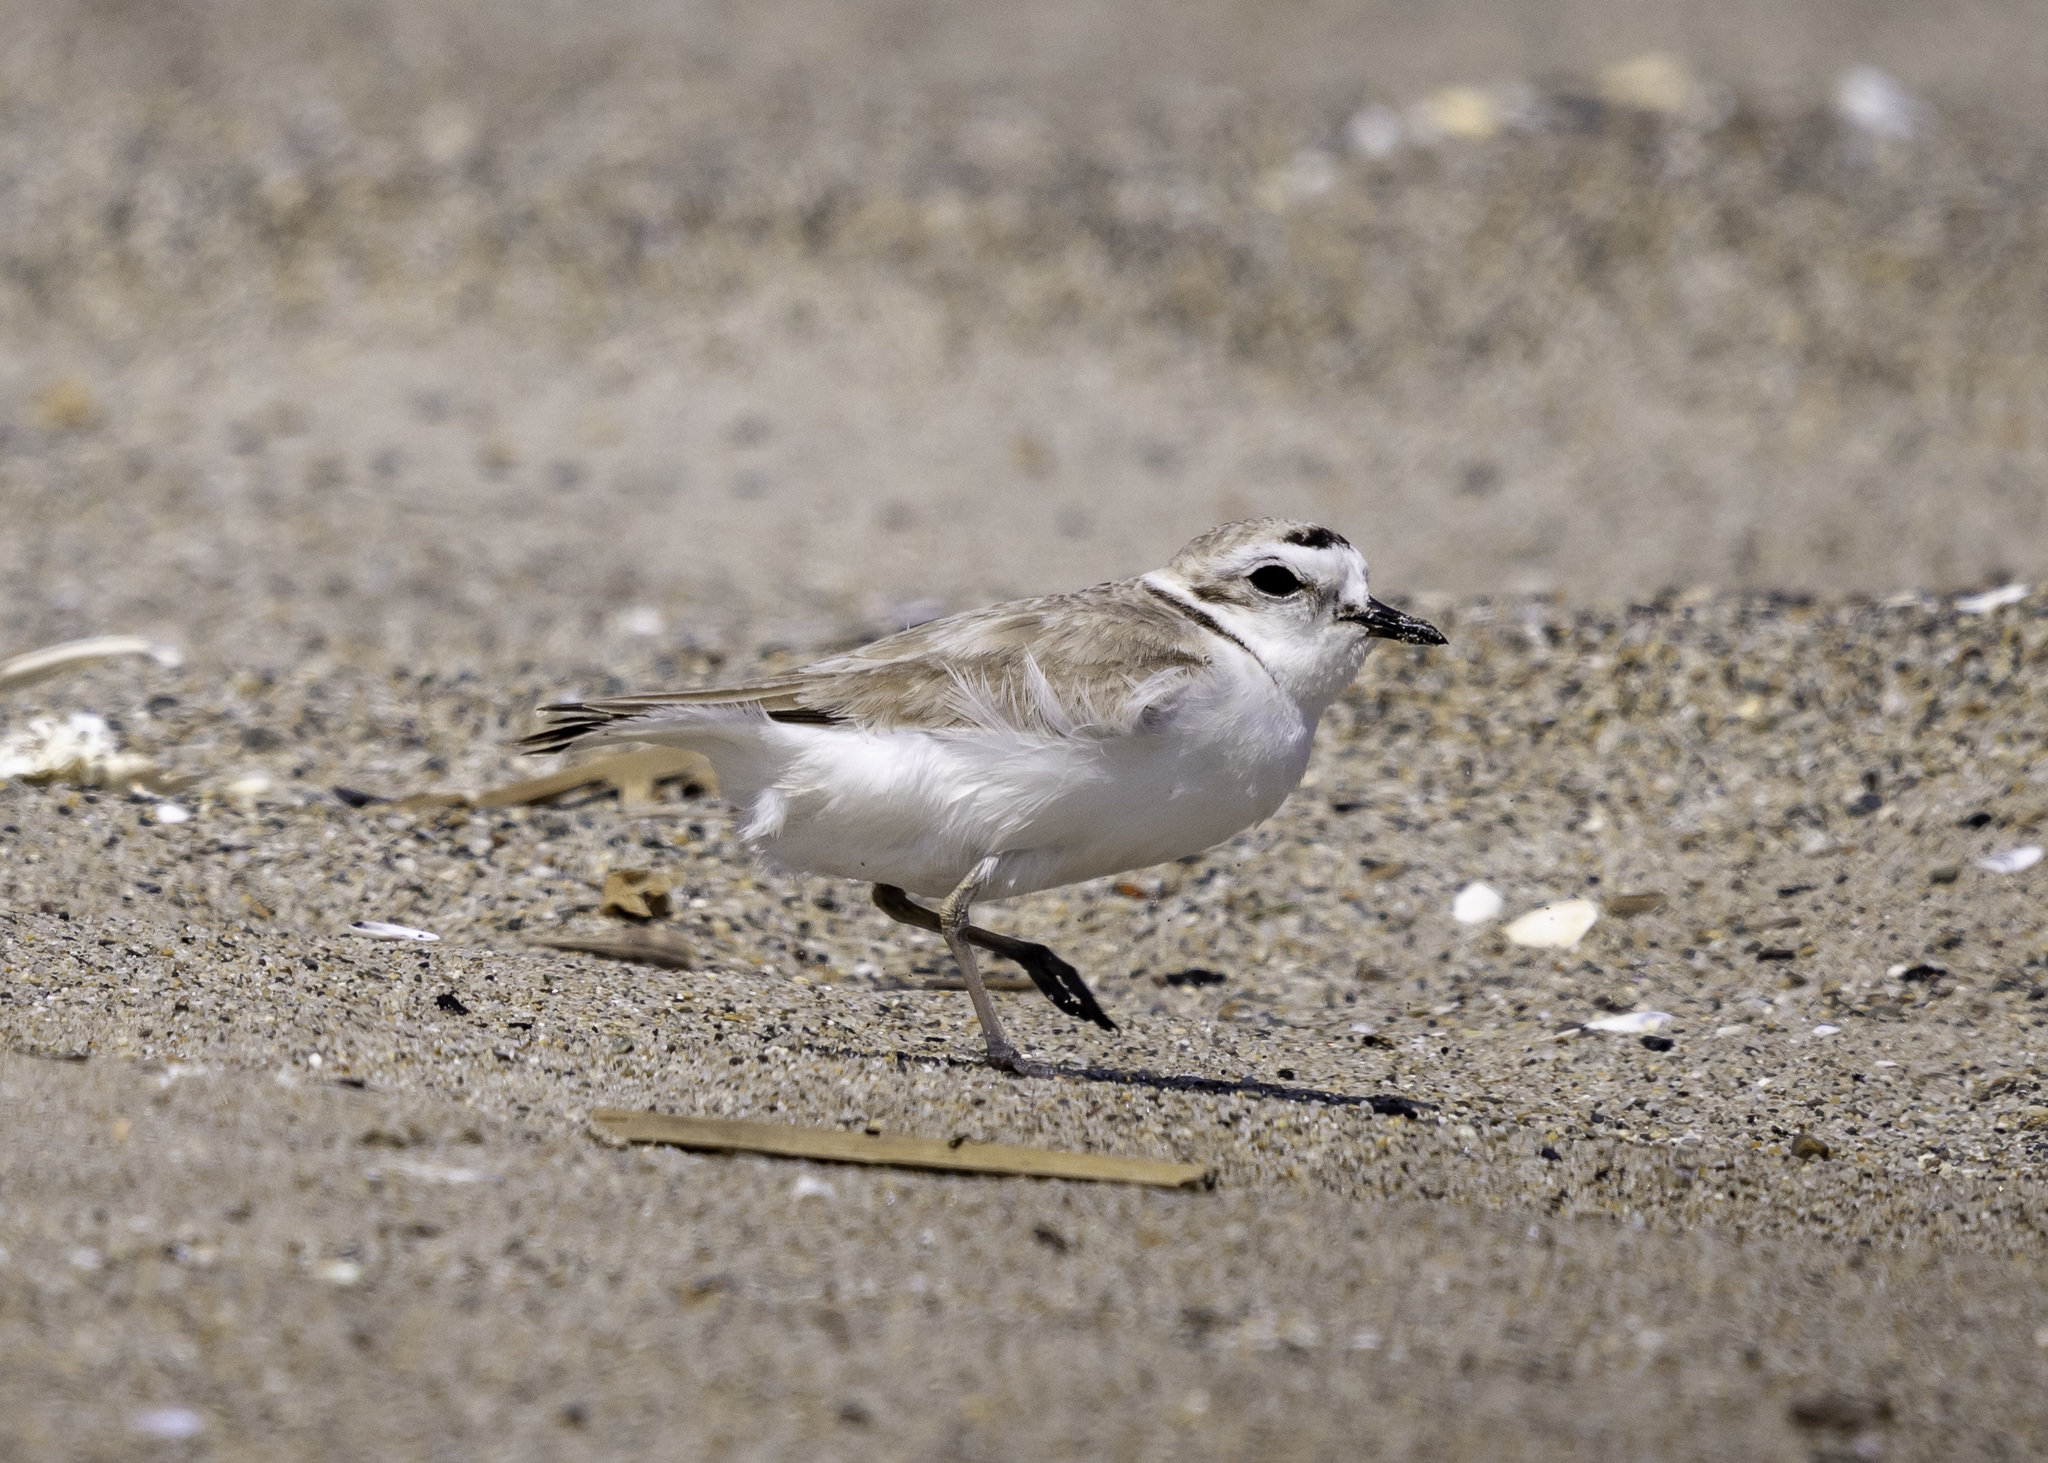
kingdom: Animalia
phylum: Chordata
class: Aves
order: Charadriiformes
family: Charadriidae
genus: Anarhynchus
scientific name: Anarhynchus
